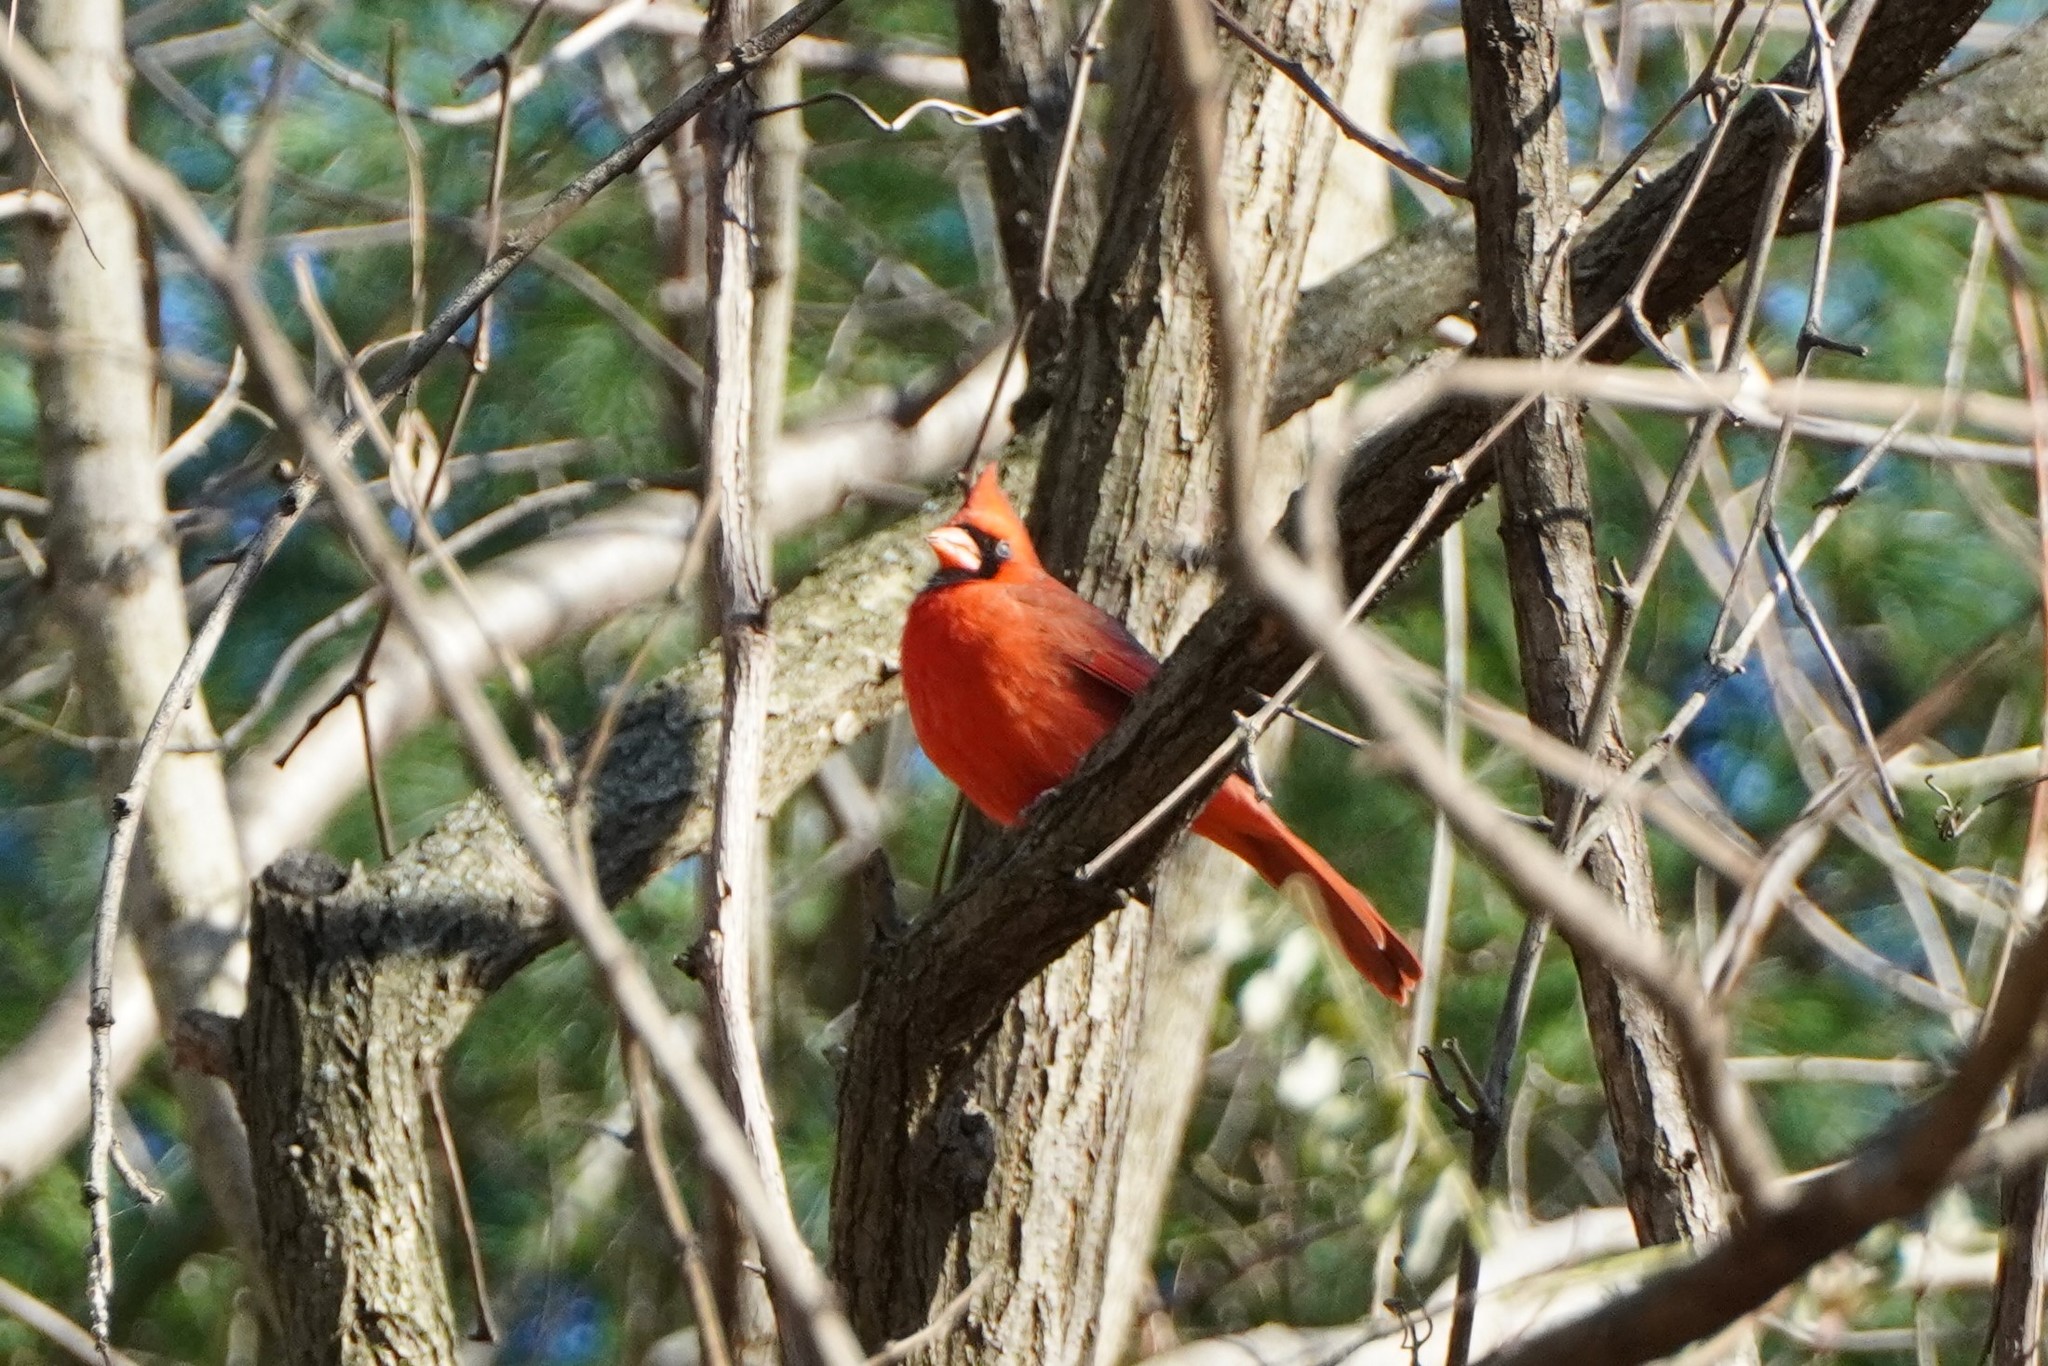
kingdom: Animalia
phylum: Chordata
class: Aves
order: Passeriformes
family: Cardinalidae
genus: Cardinalis
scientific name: Cardinalis cardinalis
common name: Northern cardinal
